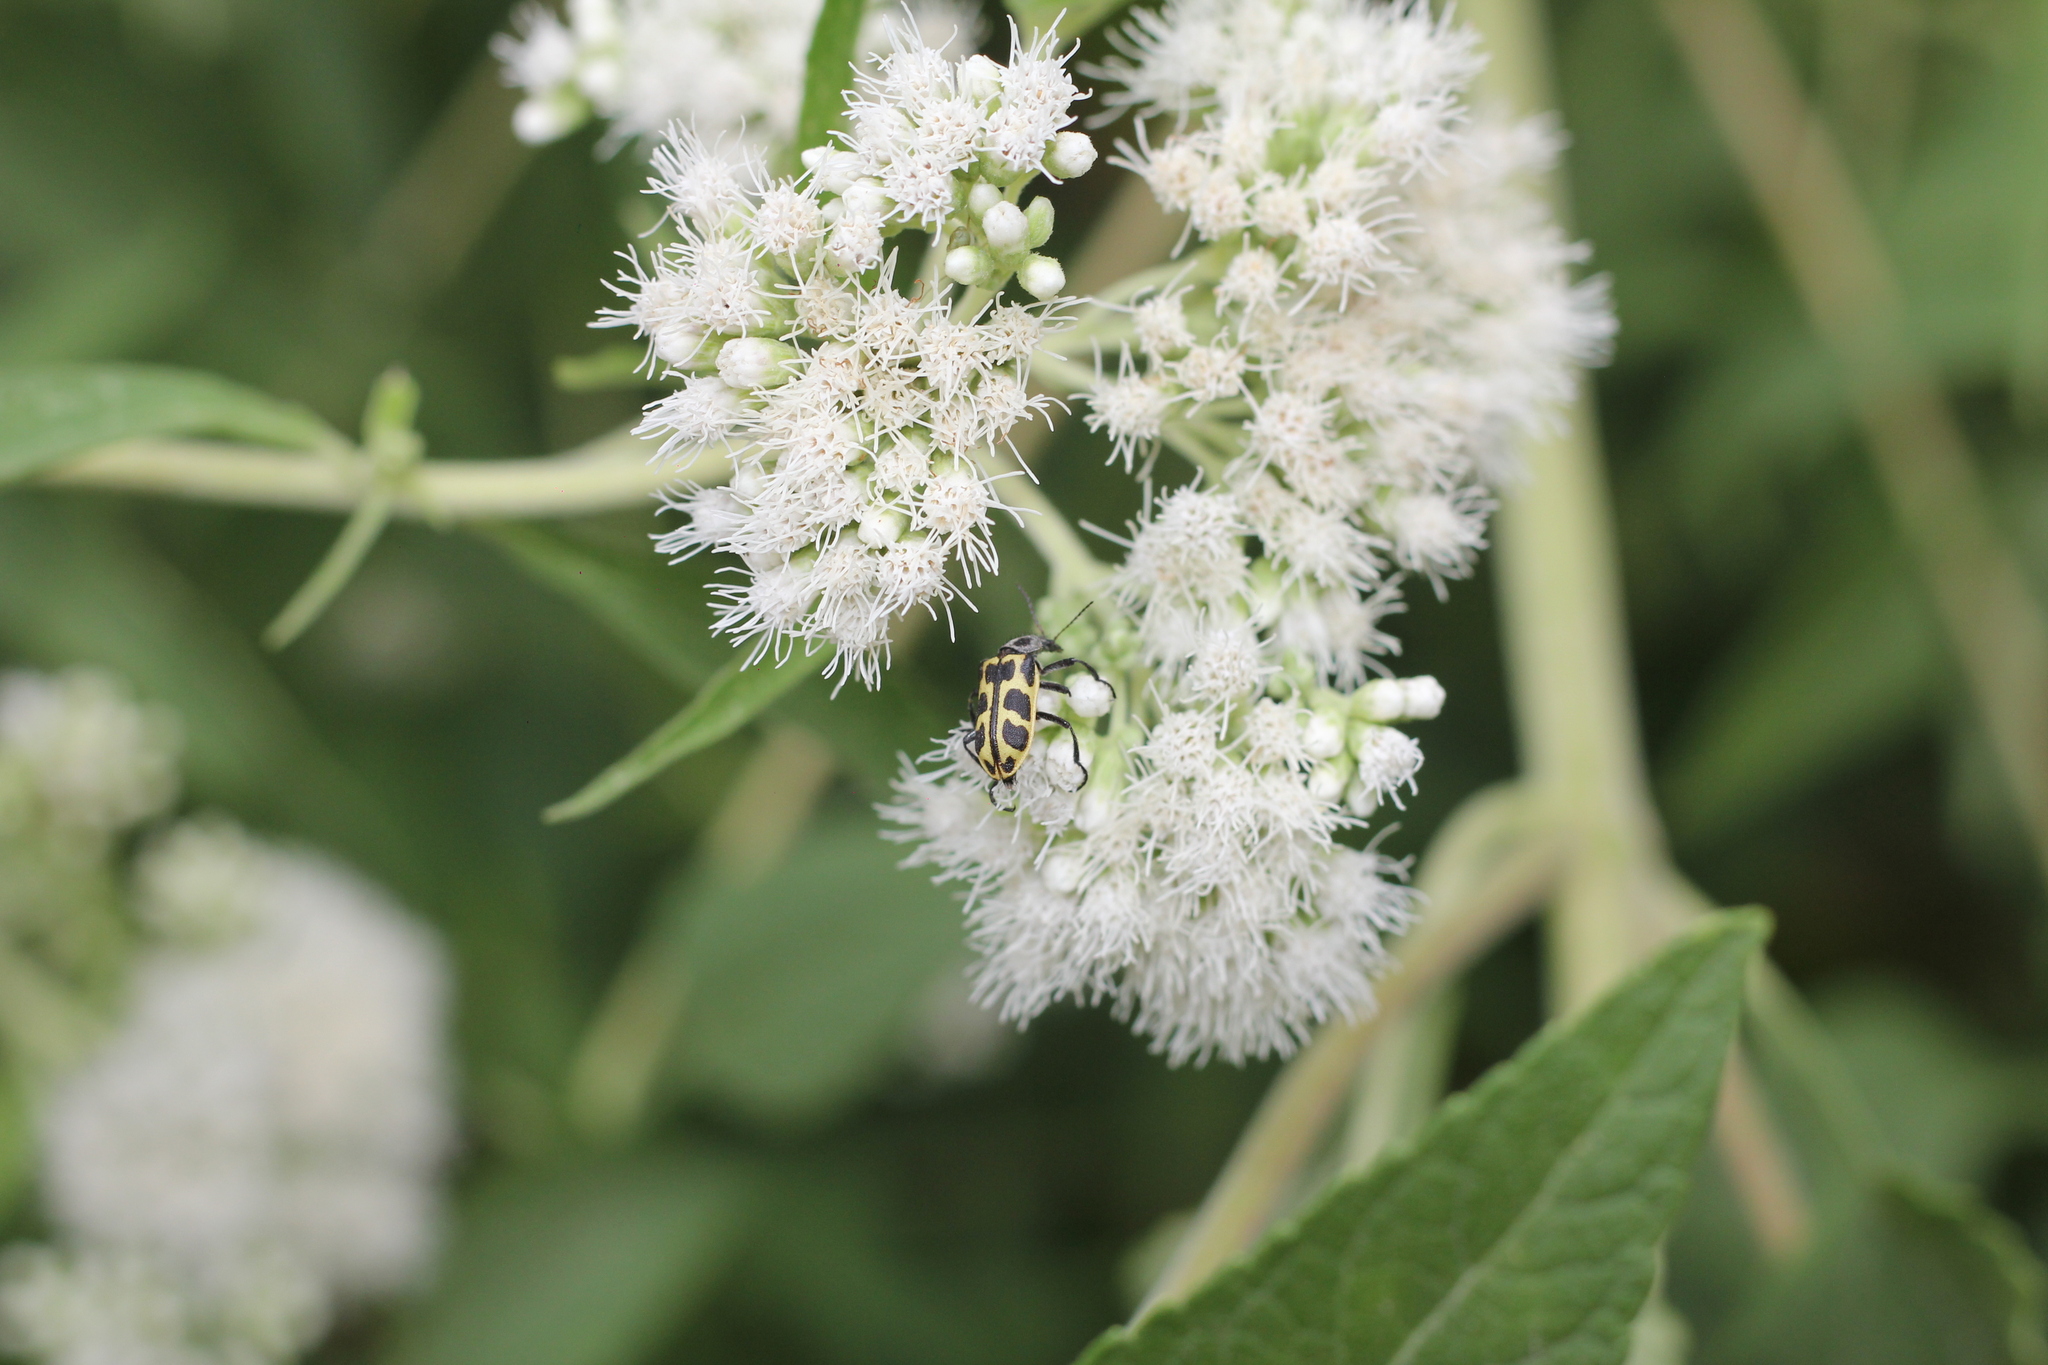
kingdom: Animalia
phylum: Arthropoda
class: Insecta
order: Coleoptera
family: Melyridae
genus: Astylus
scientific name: Astylus atromaculatus
